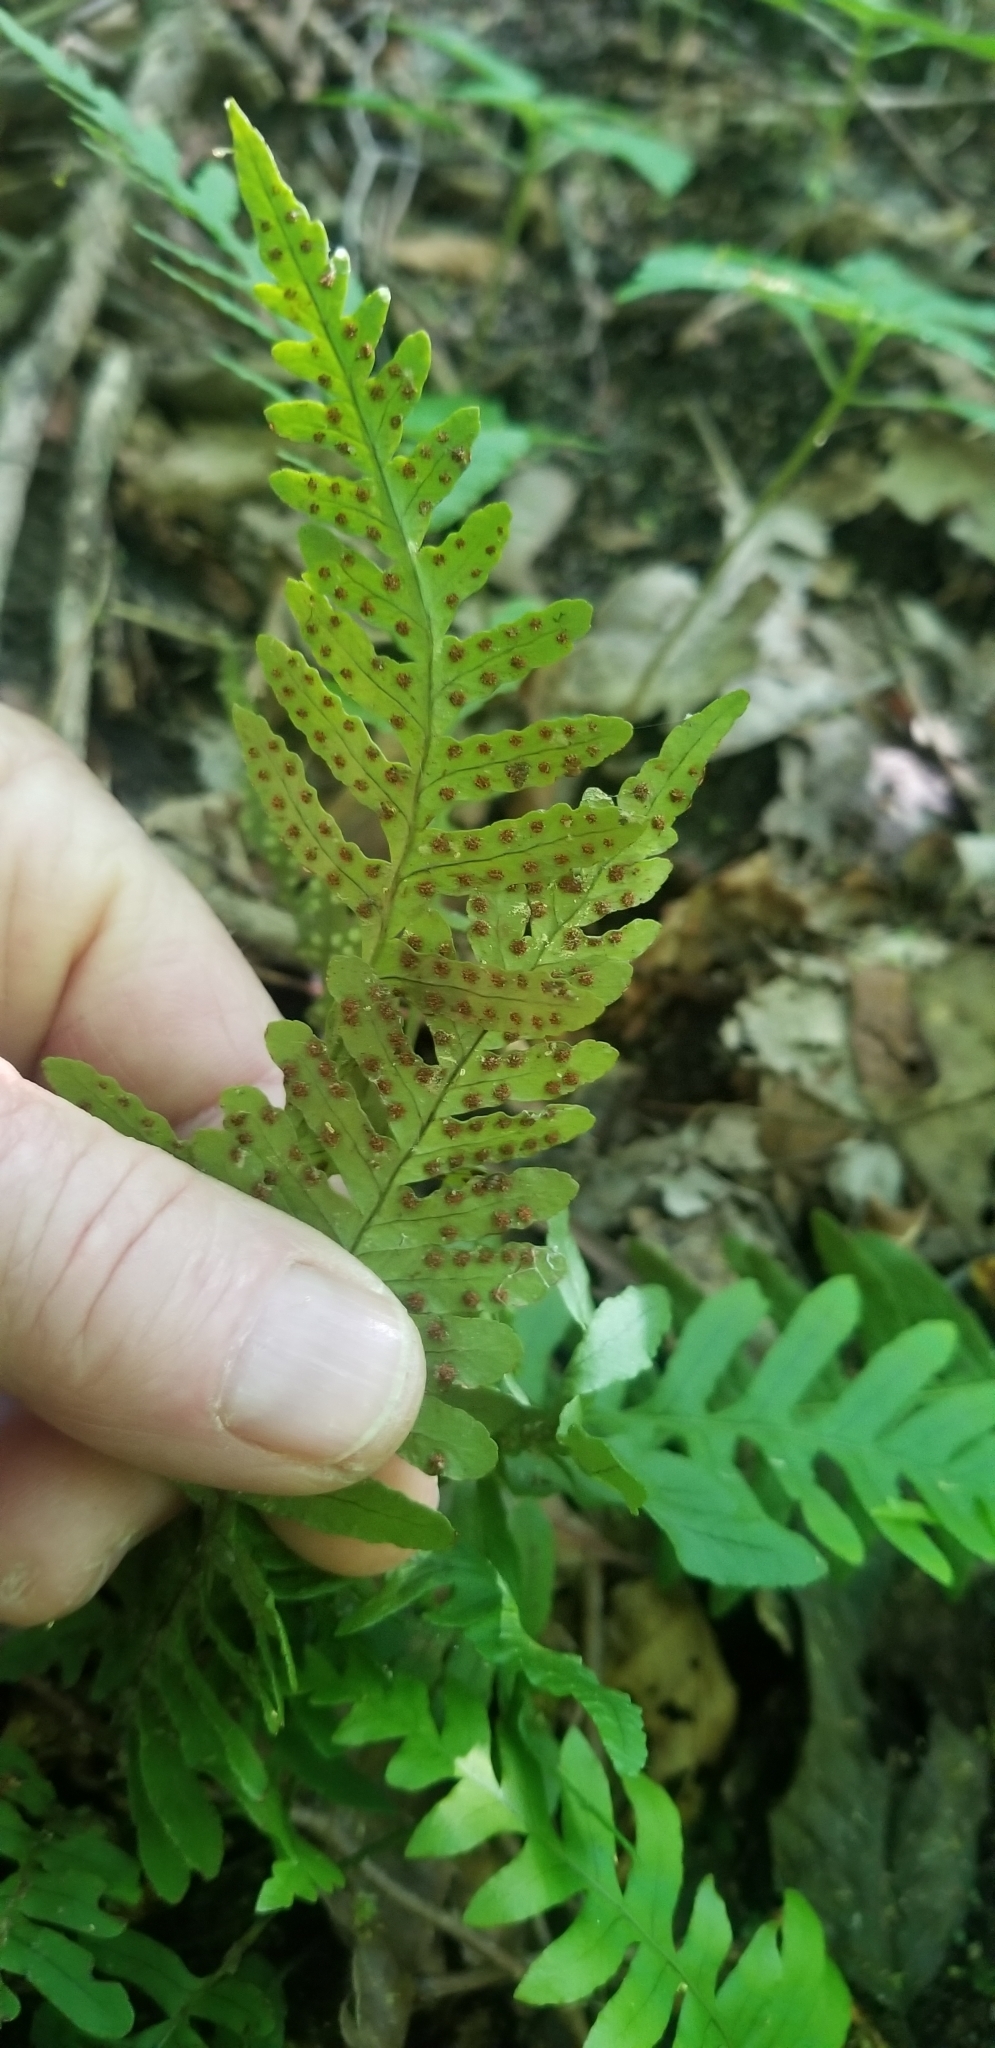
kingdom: Plantae
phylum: Tracheophyta
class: Polypodiopsida
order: Polypodiales
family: Polypodiaceae
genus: Polypodium
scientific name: Polypodium virginianum
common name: American wall fern
